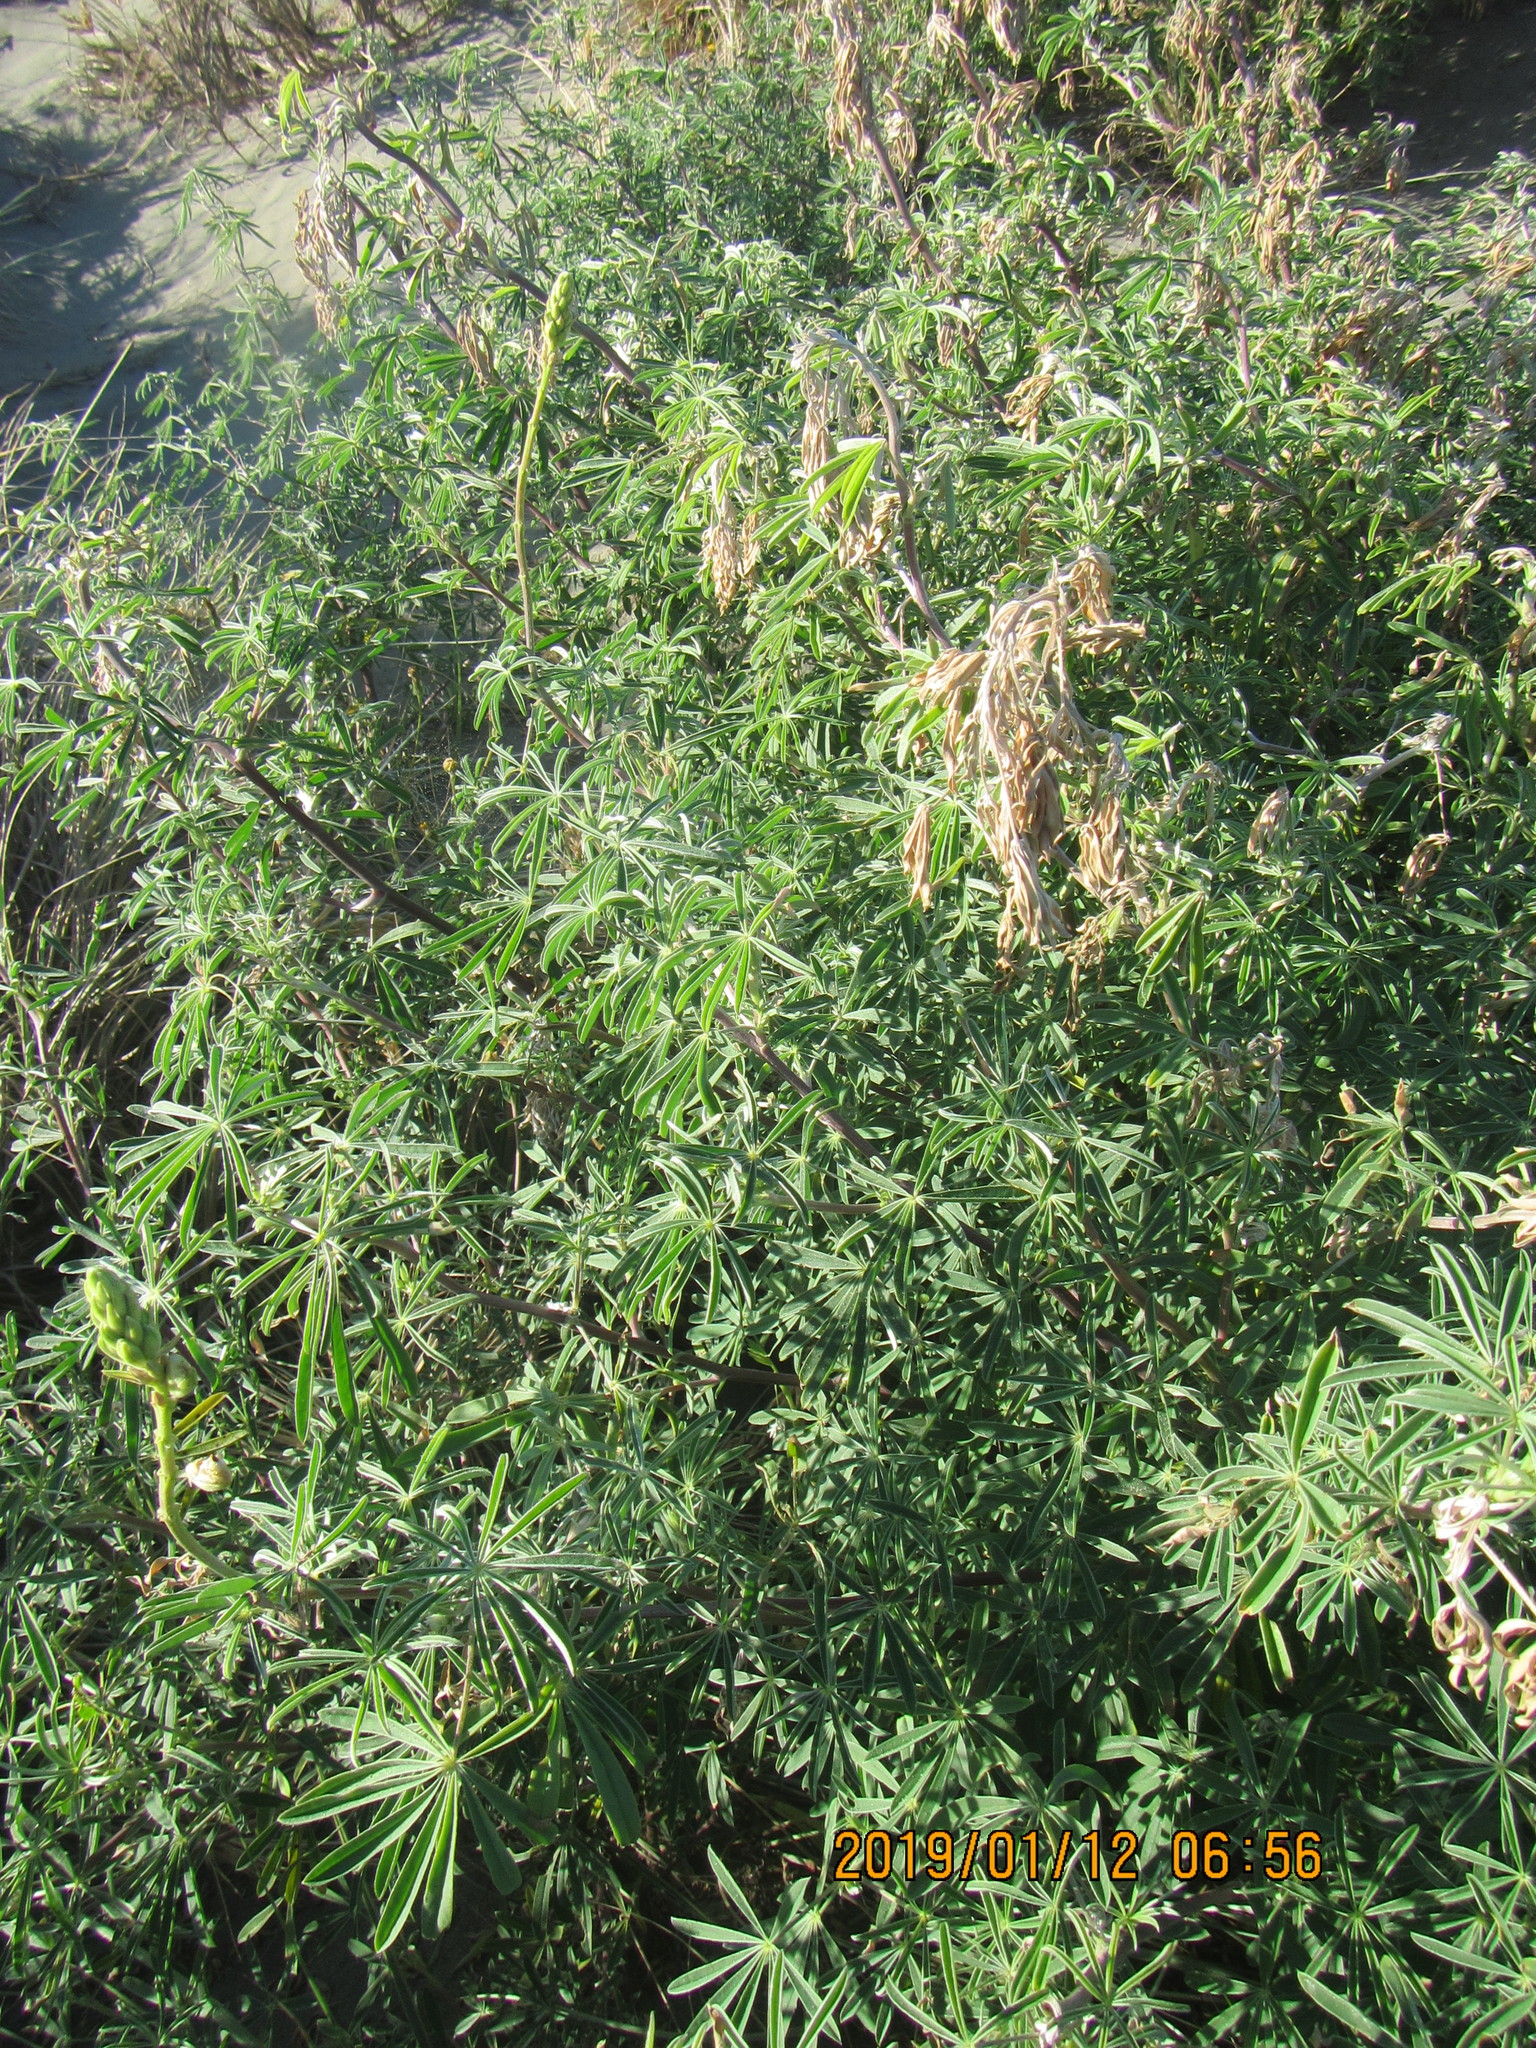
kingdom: Plantae
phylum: Tracheophyta
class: Magnoliopsida
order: Fabales
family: Fabaceae
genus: Lupinus
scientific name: Lupinus arboreus
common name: Yellow bush lupine
